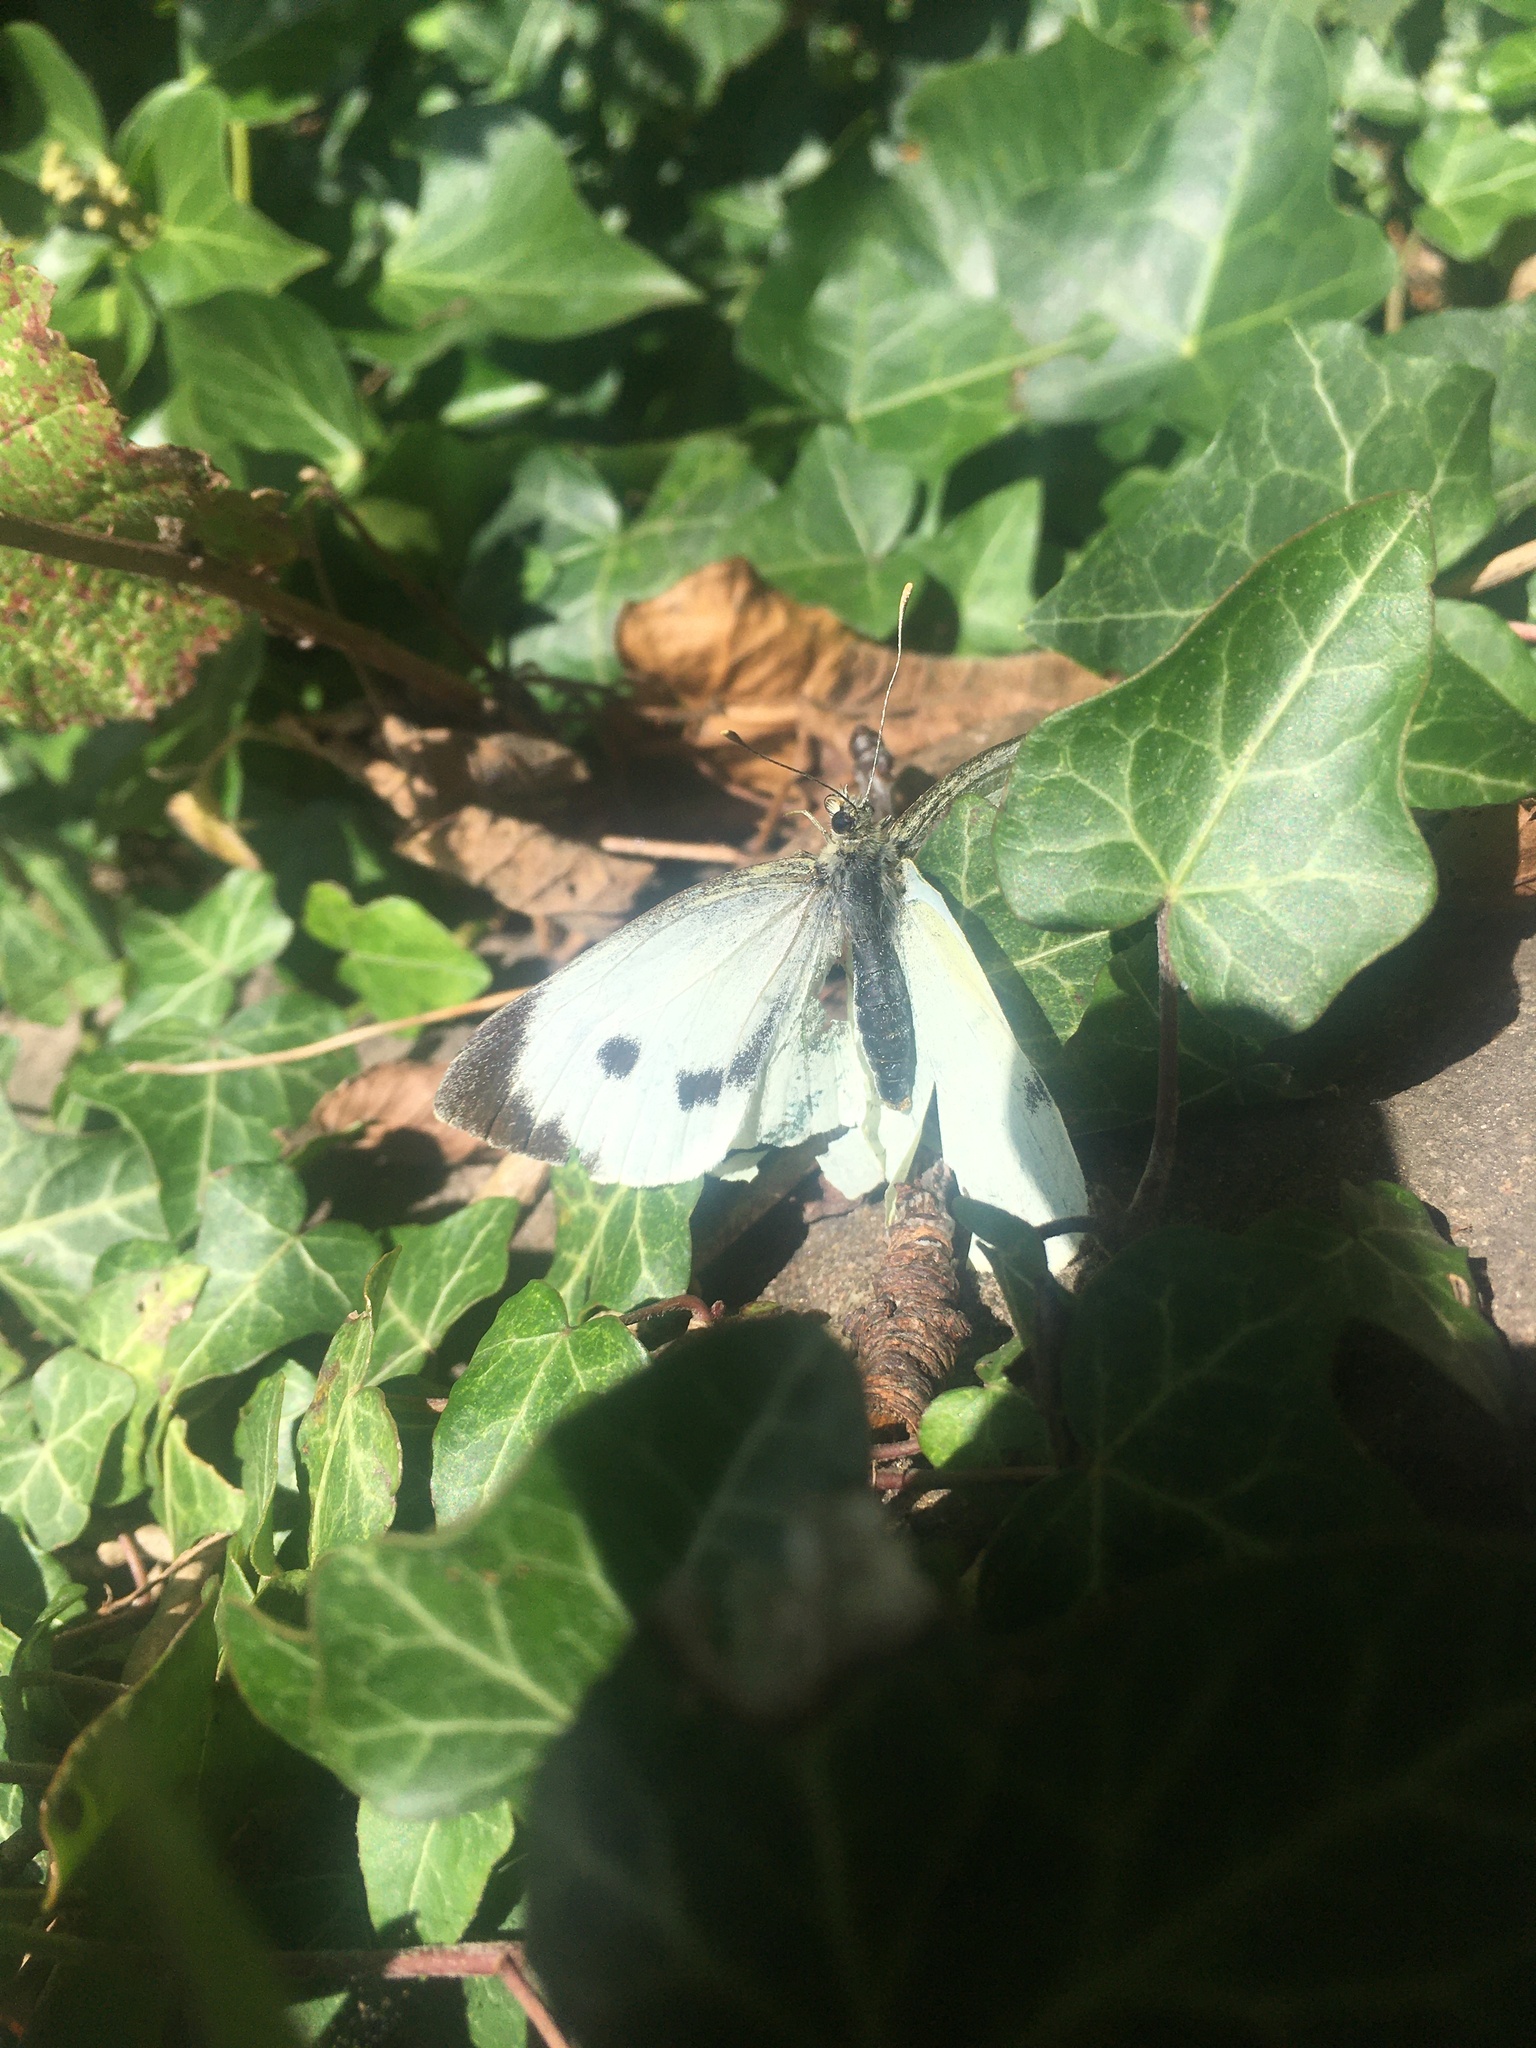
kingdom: Animalia
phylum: Arthropoda
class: Insecta
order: Lepidoptera
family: Pieridae
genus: Pieris
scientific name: Pieris brassicae
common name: Large white
